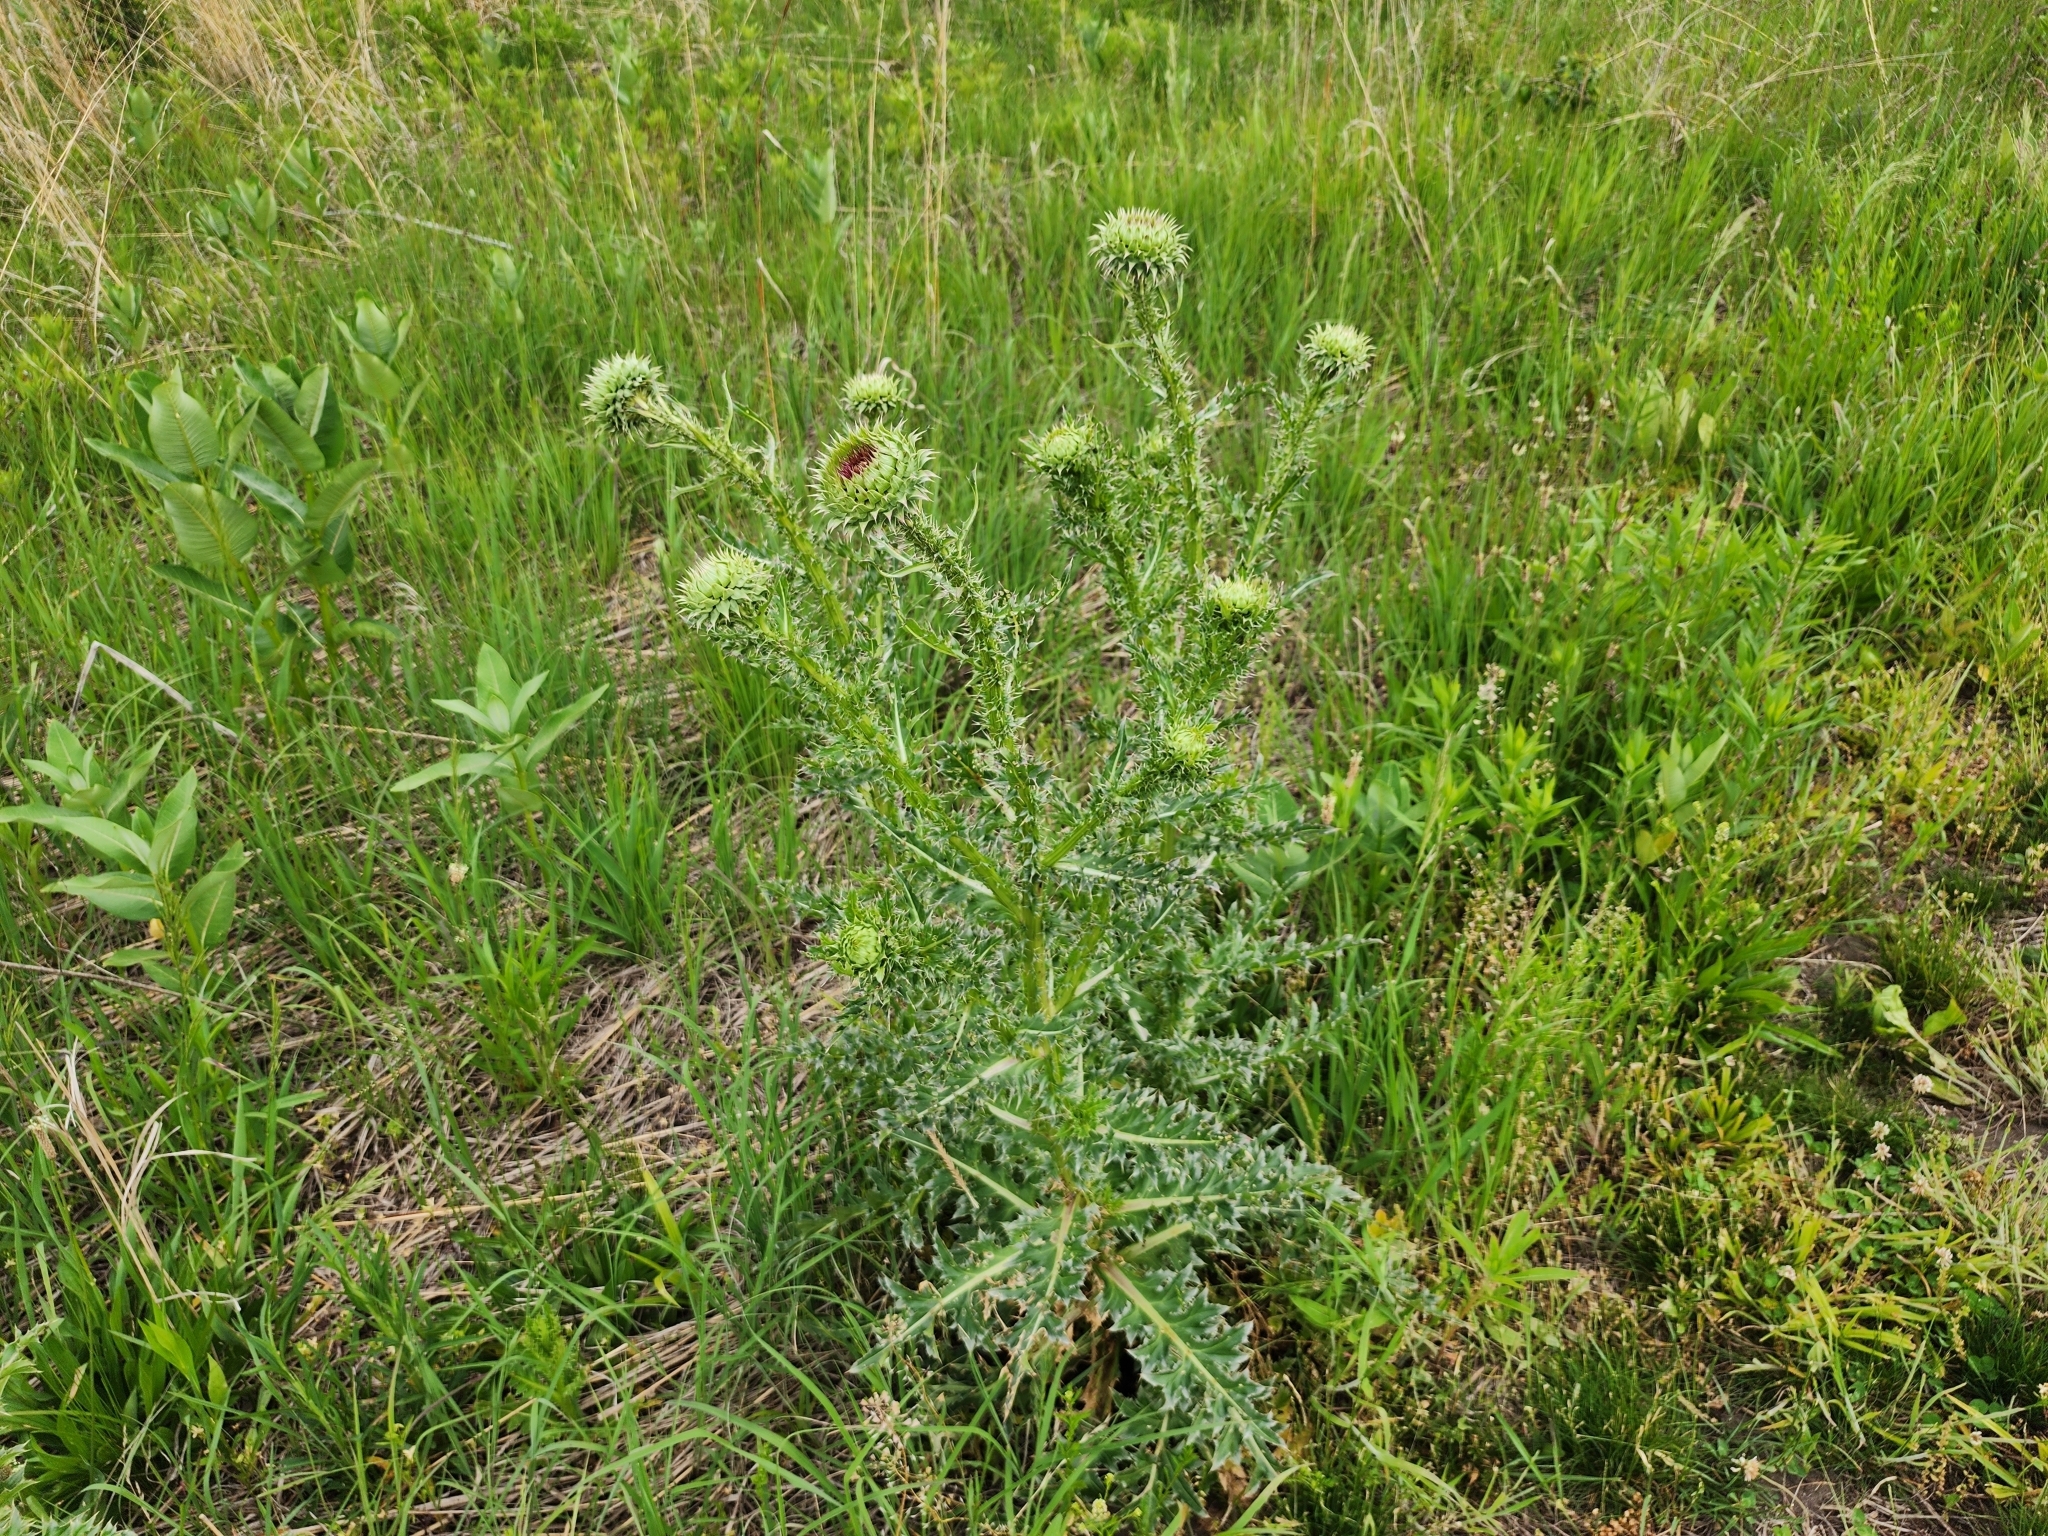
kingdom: Plantae
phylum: Tracheophyta
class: Magnoliopsida
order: Asterales
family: Asteraceae
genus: Carduus
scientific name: Carduus nutans
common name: Musk thistle
